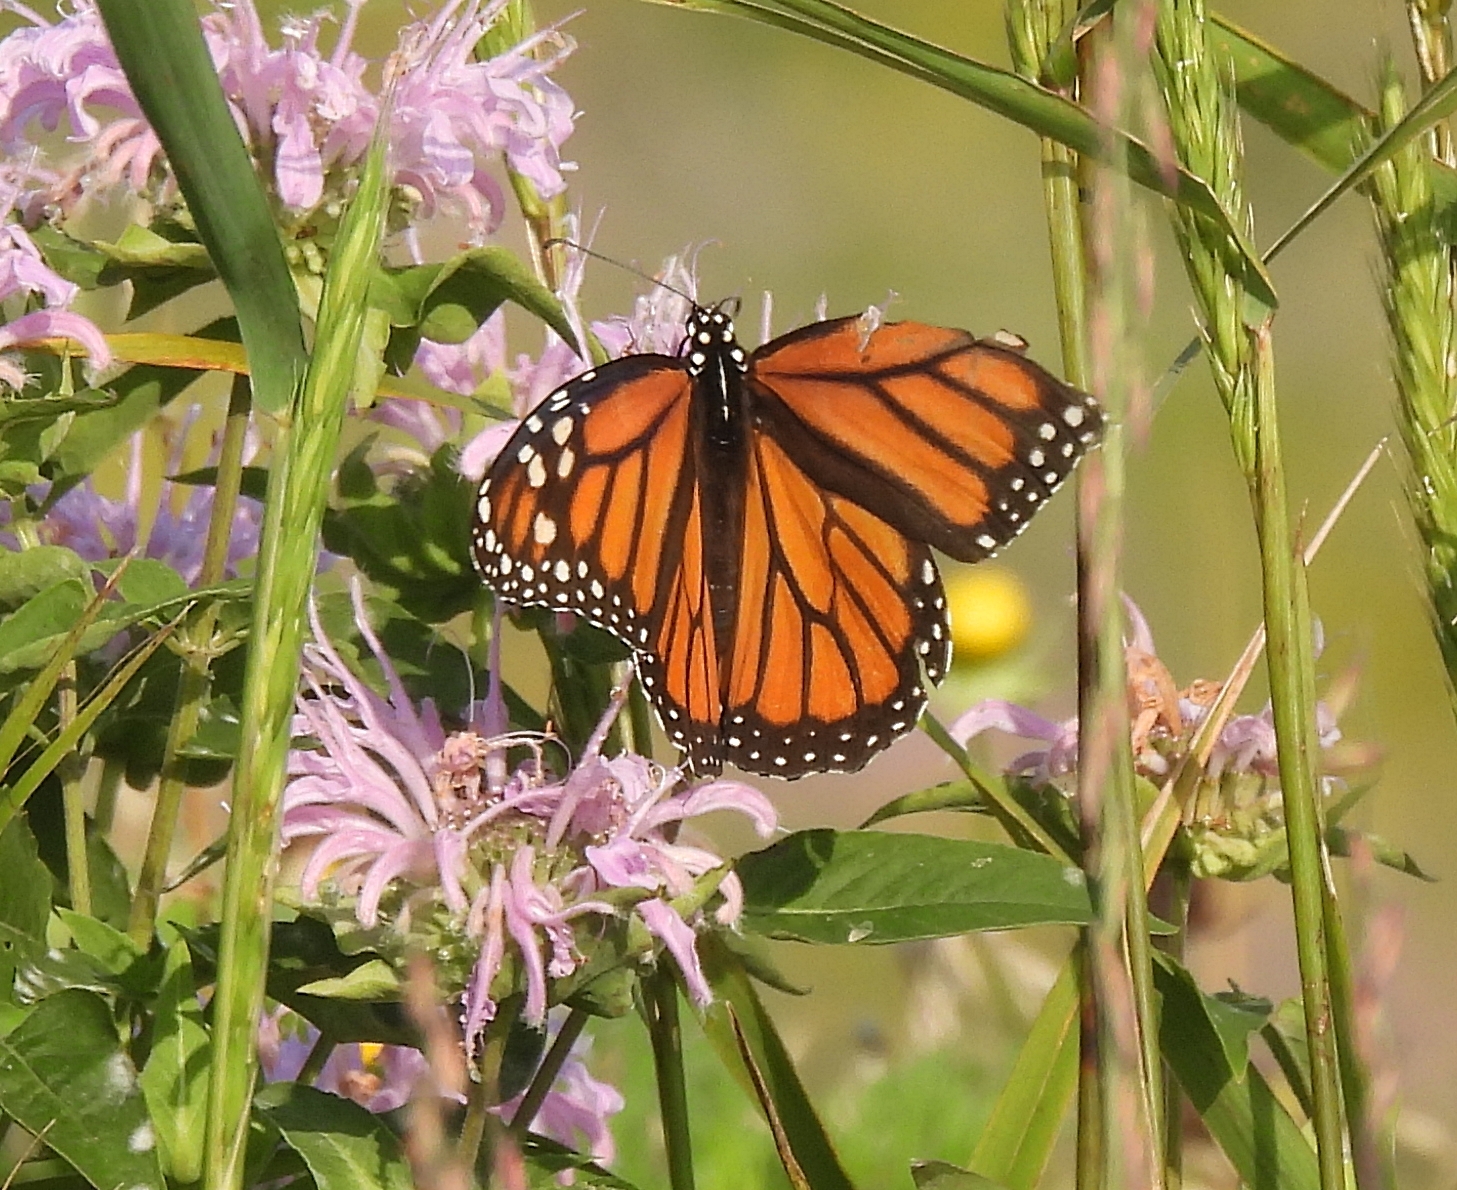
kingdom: Animalia
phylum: Arthropoda
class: Insecta
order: Lepidoptera
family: Nymphalidae
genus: Danaus
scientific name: Danaus plexippus
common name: Monarch
